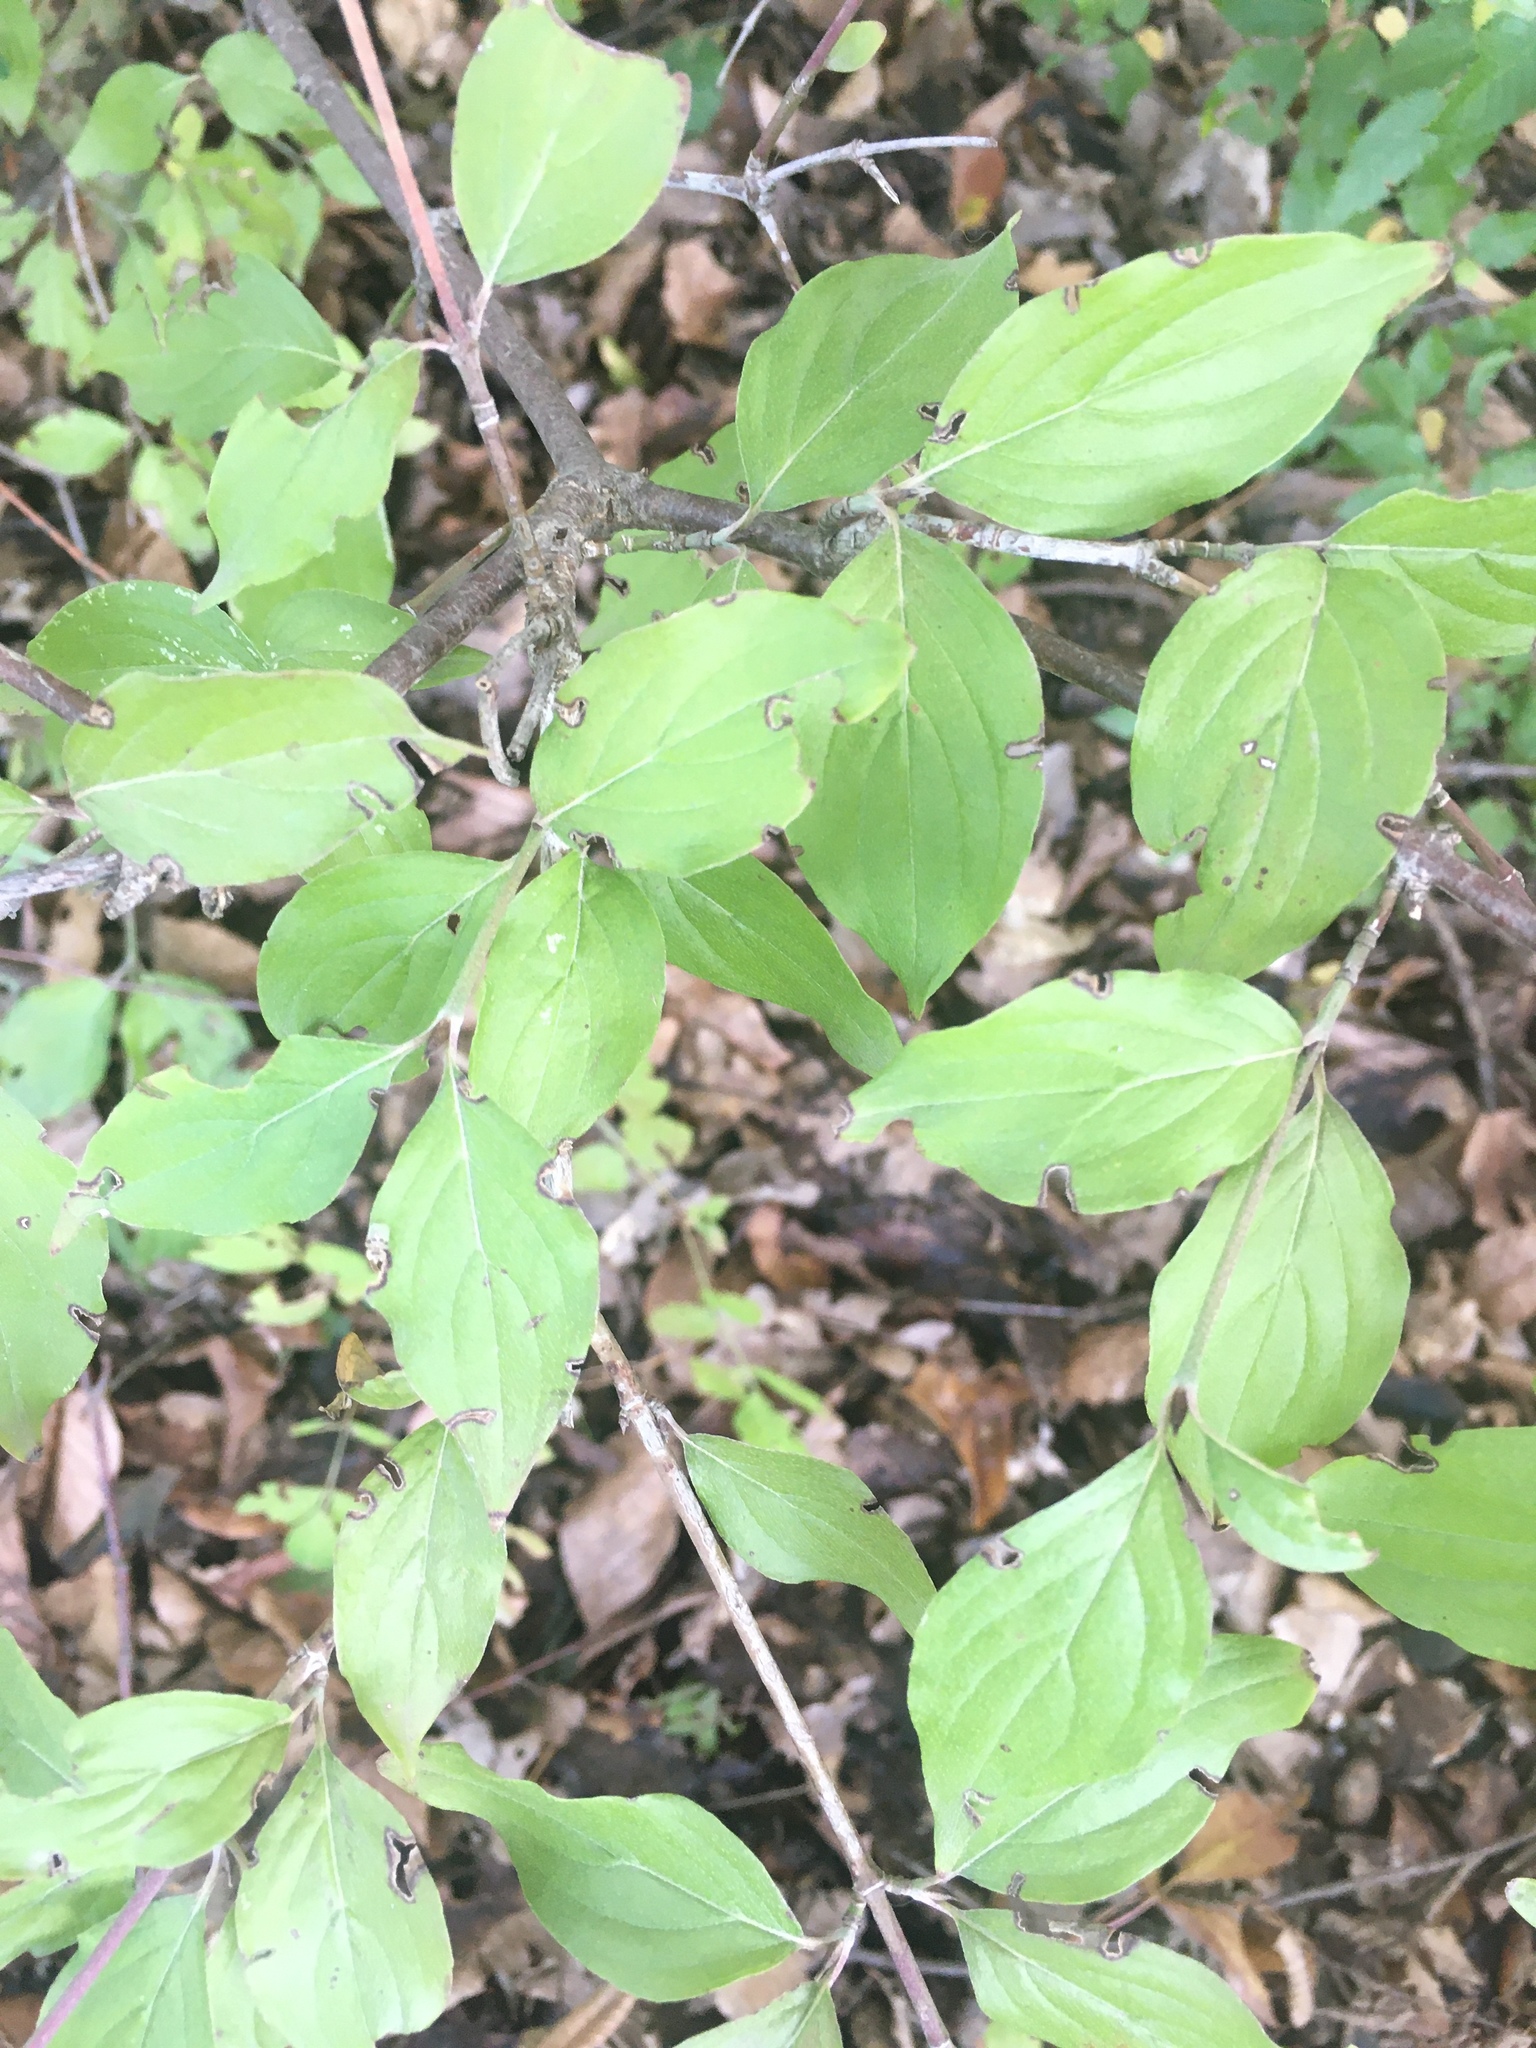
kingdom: Plantae
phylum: Tracheophyta
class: Magnoliopsida
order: Cornales
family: Cornaceae
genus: Cornus
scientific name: Cornus mas
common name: Cornelian-cherry
